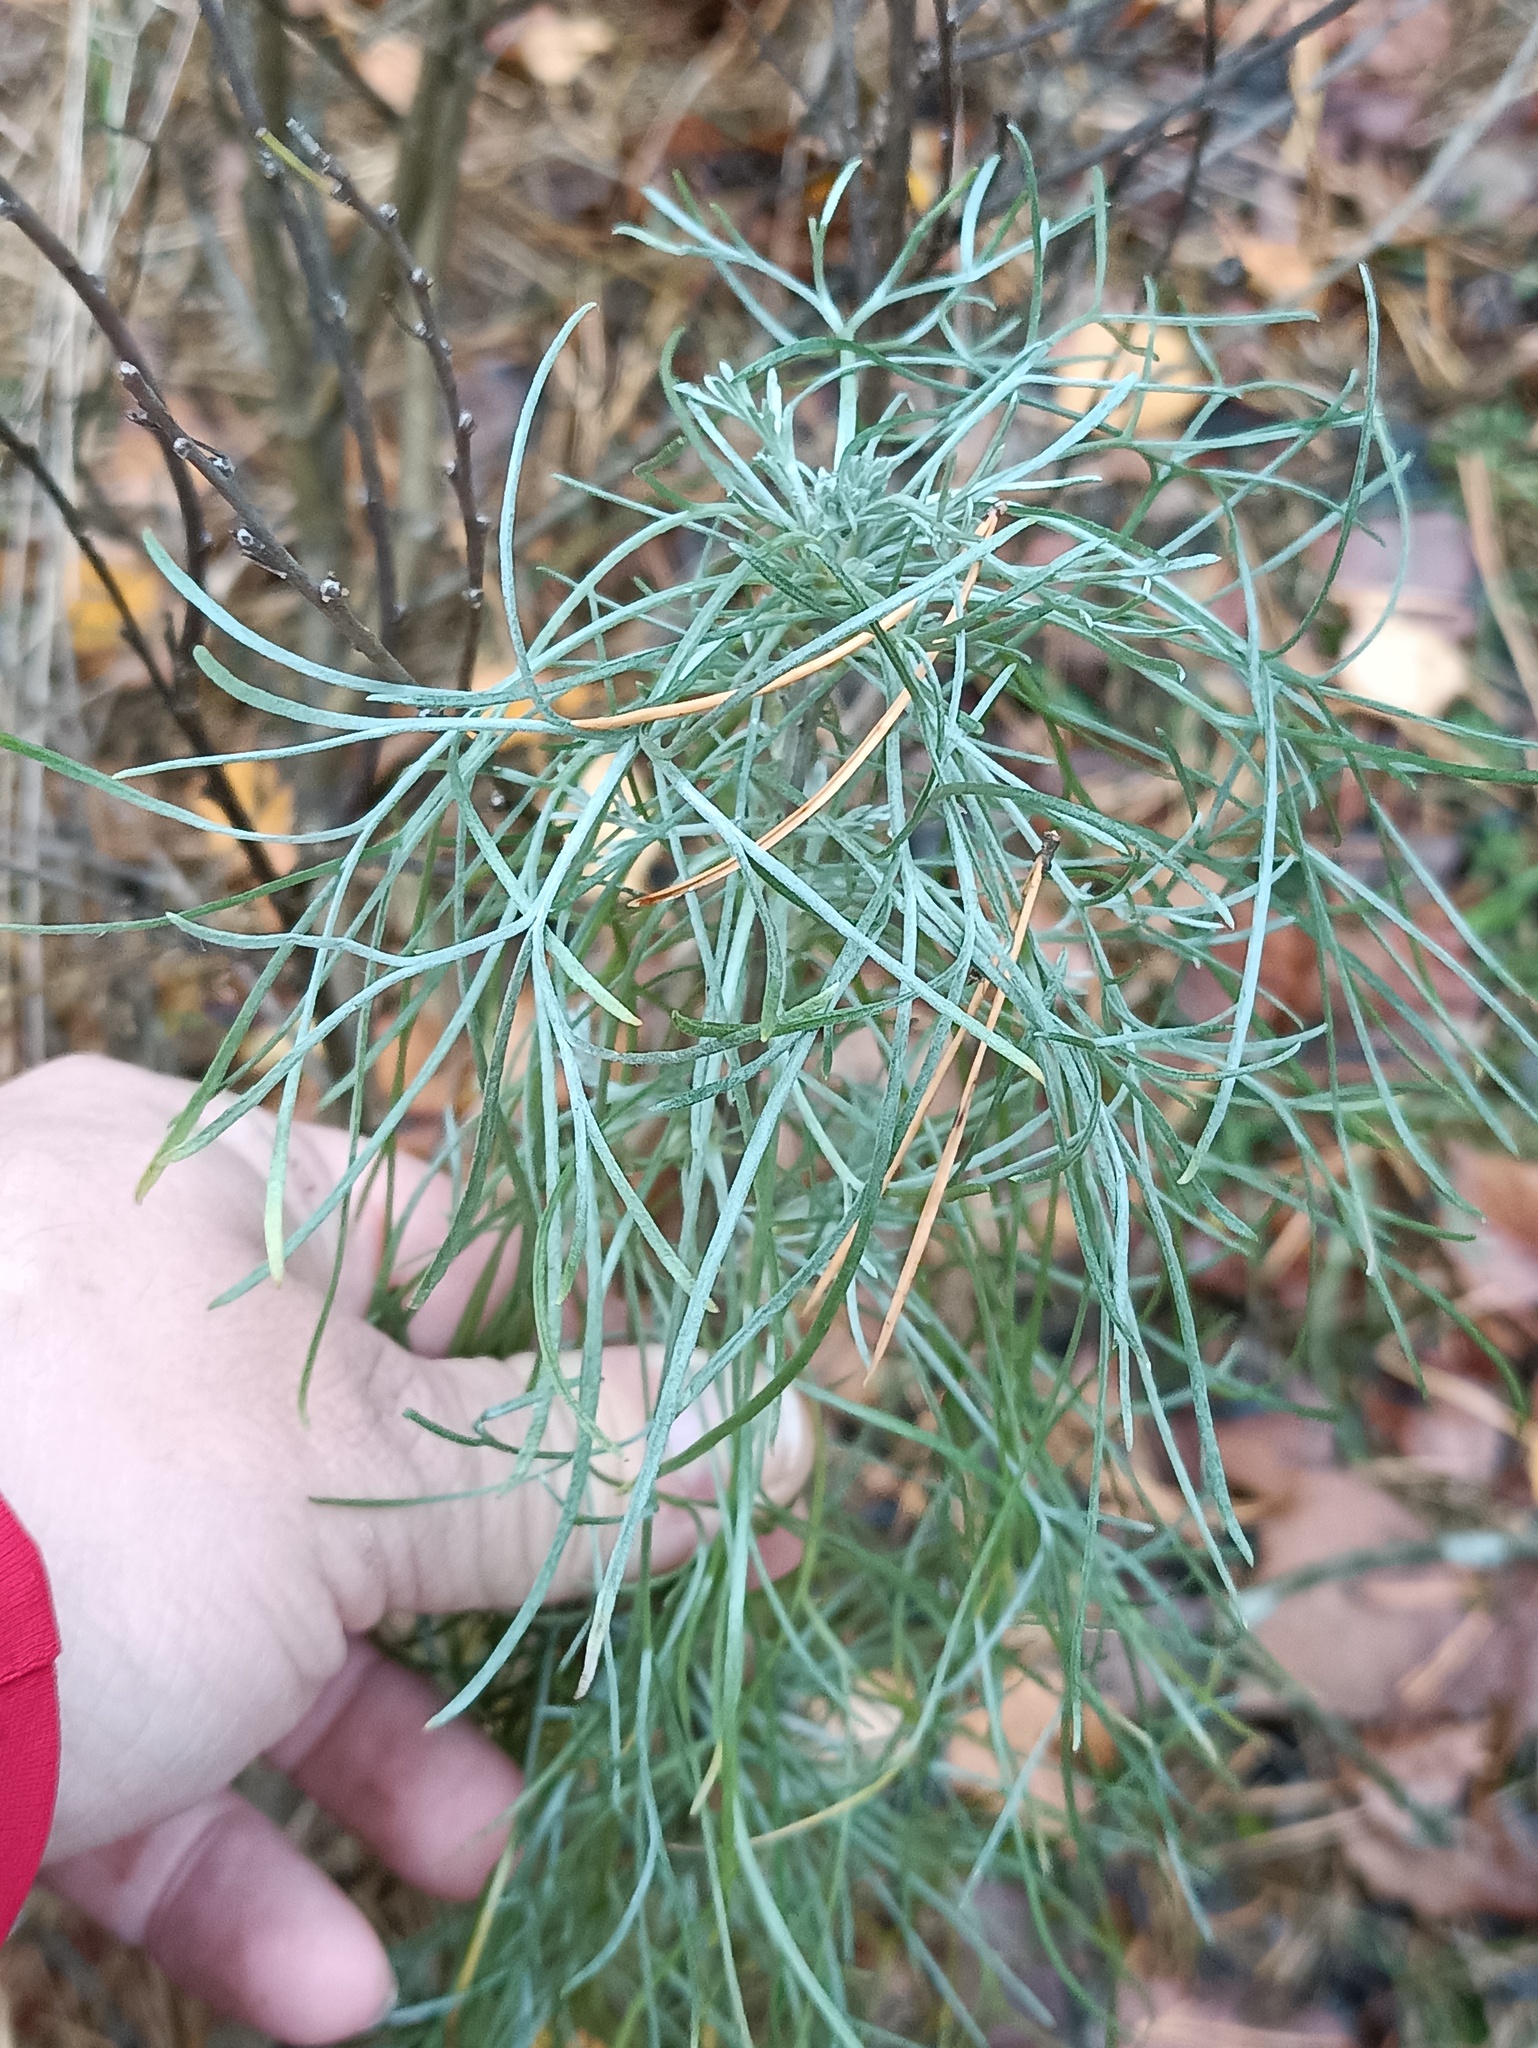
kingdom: Plantae
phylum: Tracheophyta
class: Magnoliopsida
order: Asterales
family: Asteraceae
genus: Artemisia
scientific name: Artemisia campestris
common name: Field wormwood
